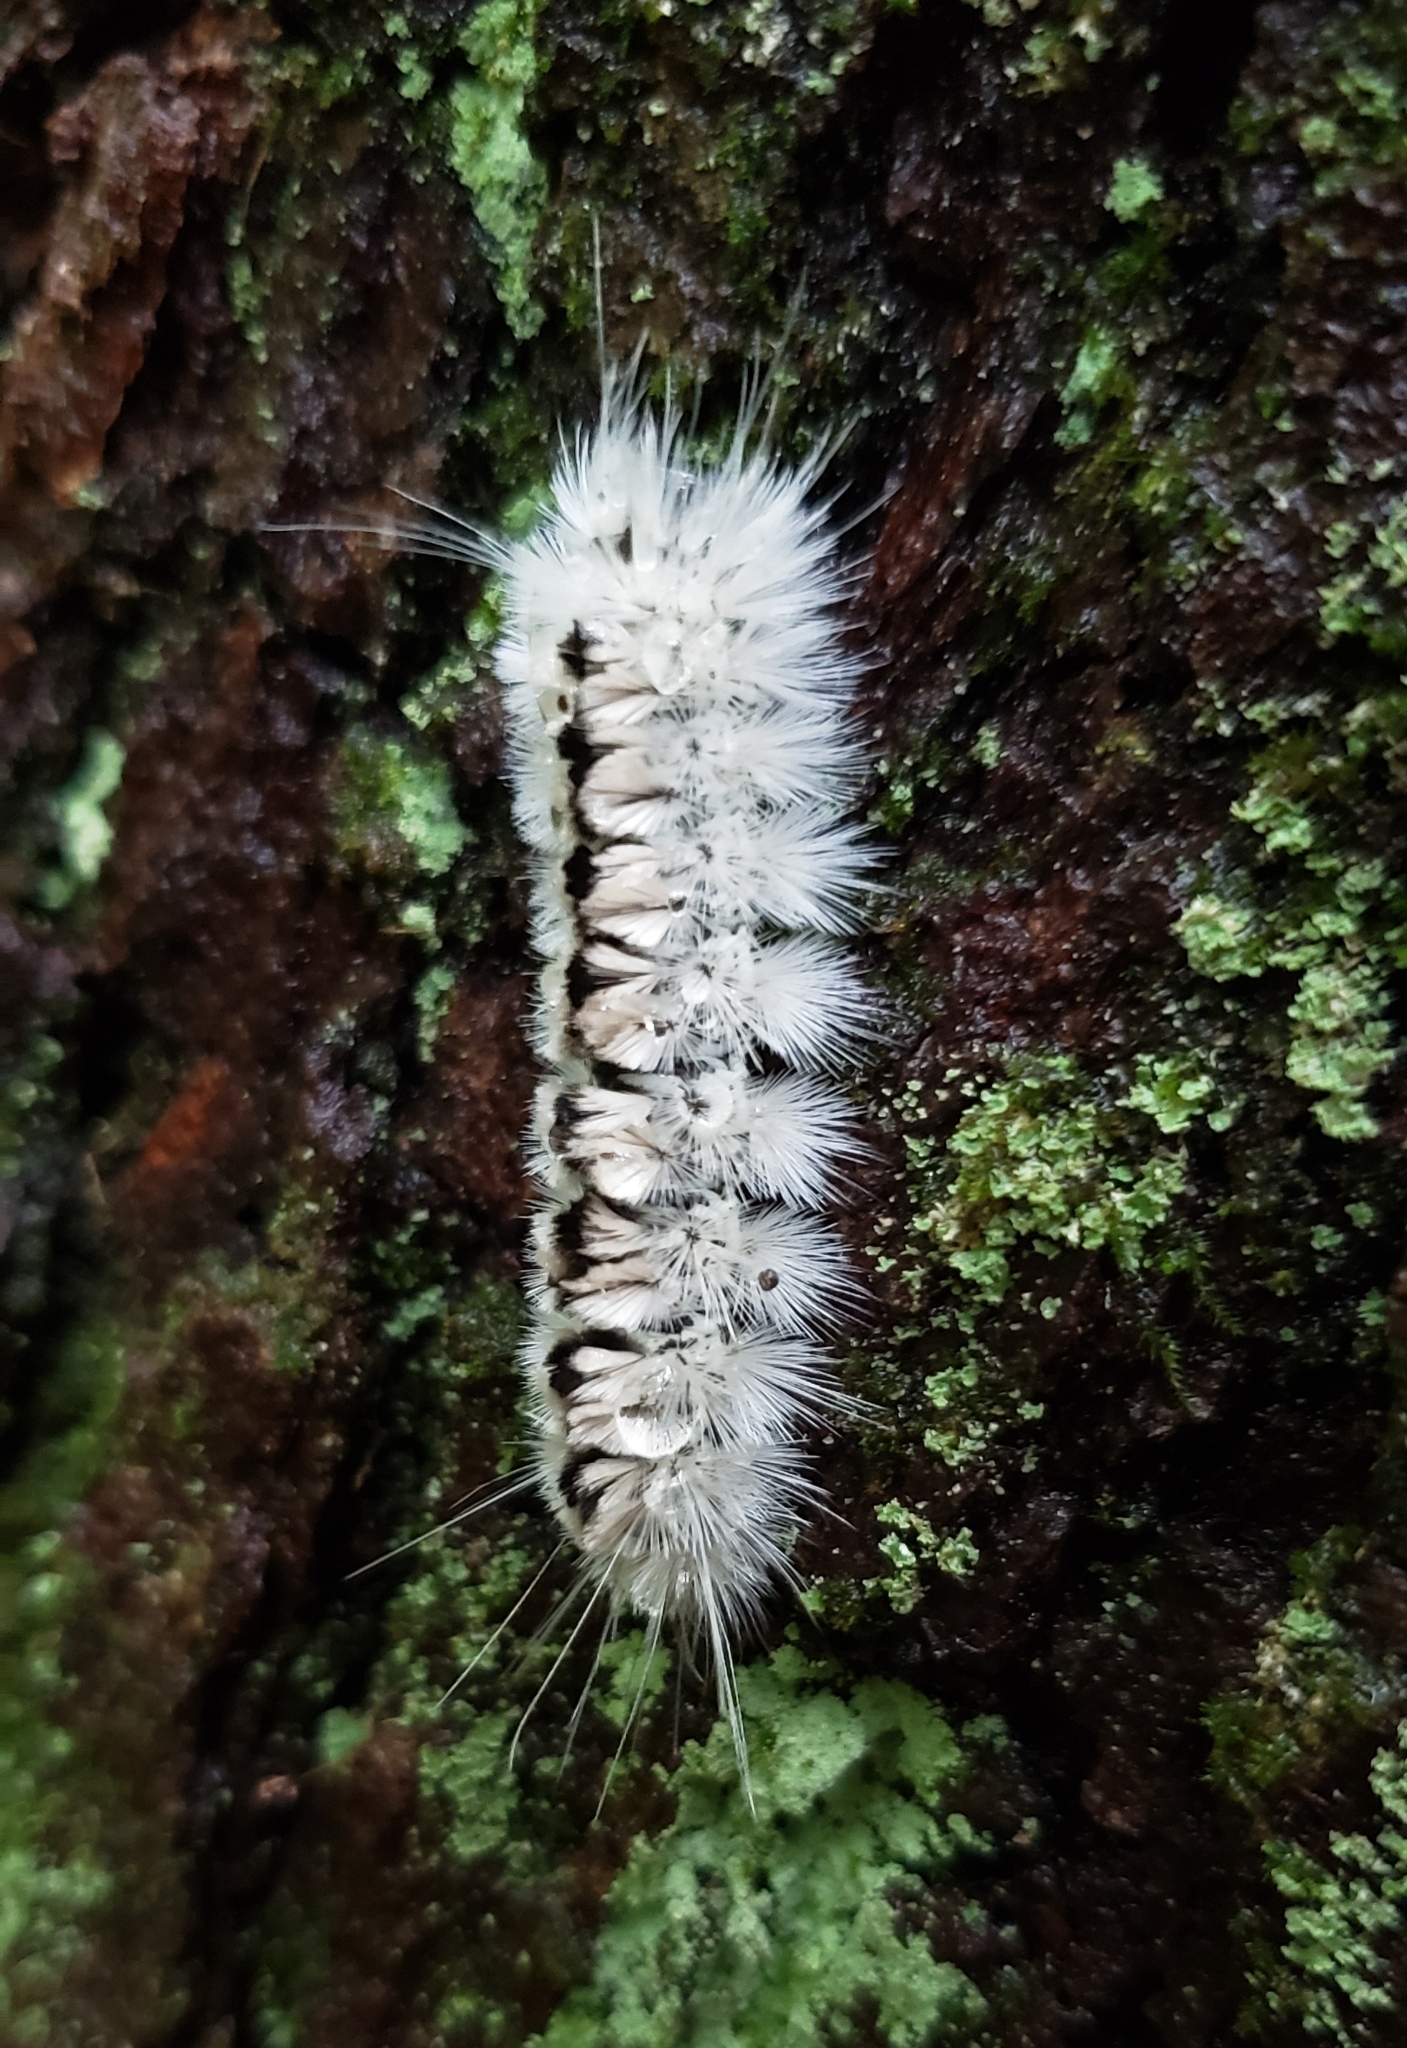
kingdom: Animalia
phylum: Arthropoda
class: Insecta
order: Lepidoptera
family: Erebidae
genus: Lophocampa
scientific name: Lophocampa caryae
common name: Hickory tussock moth
